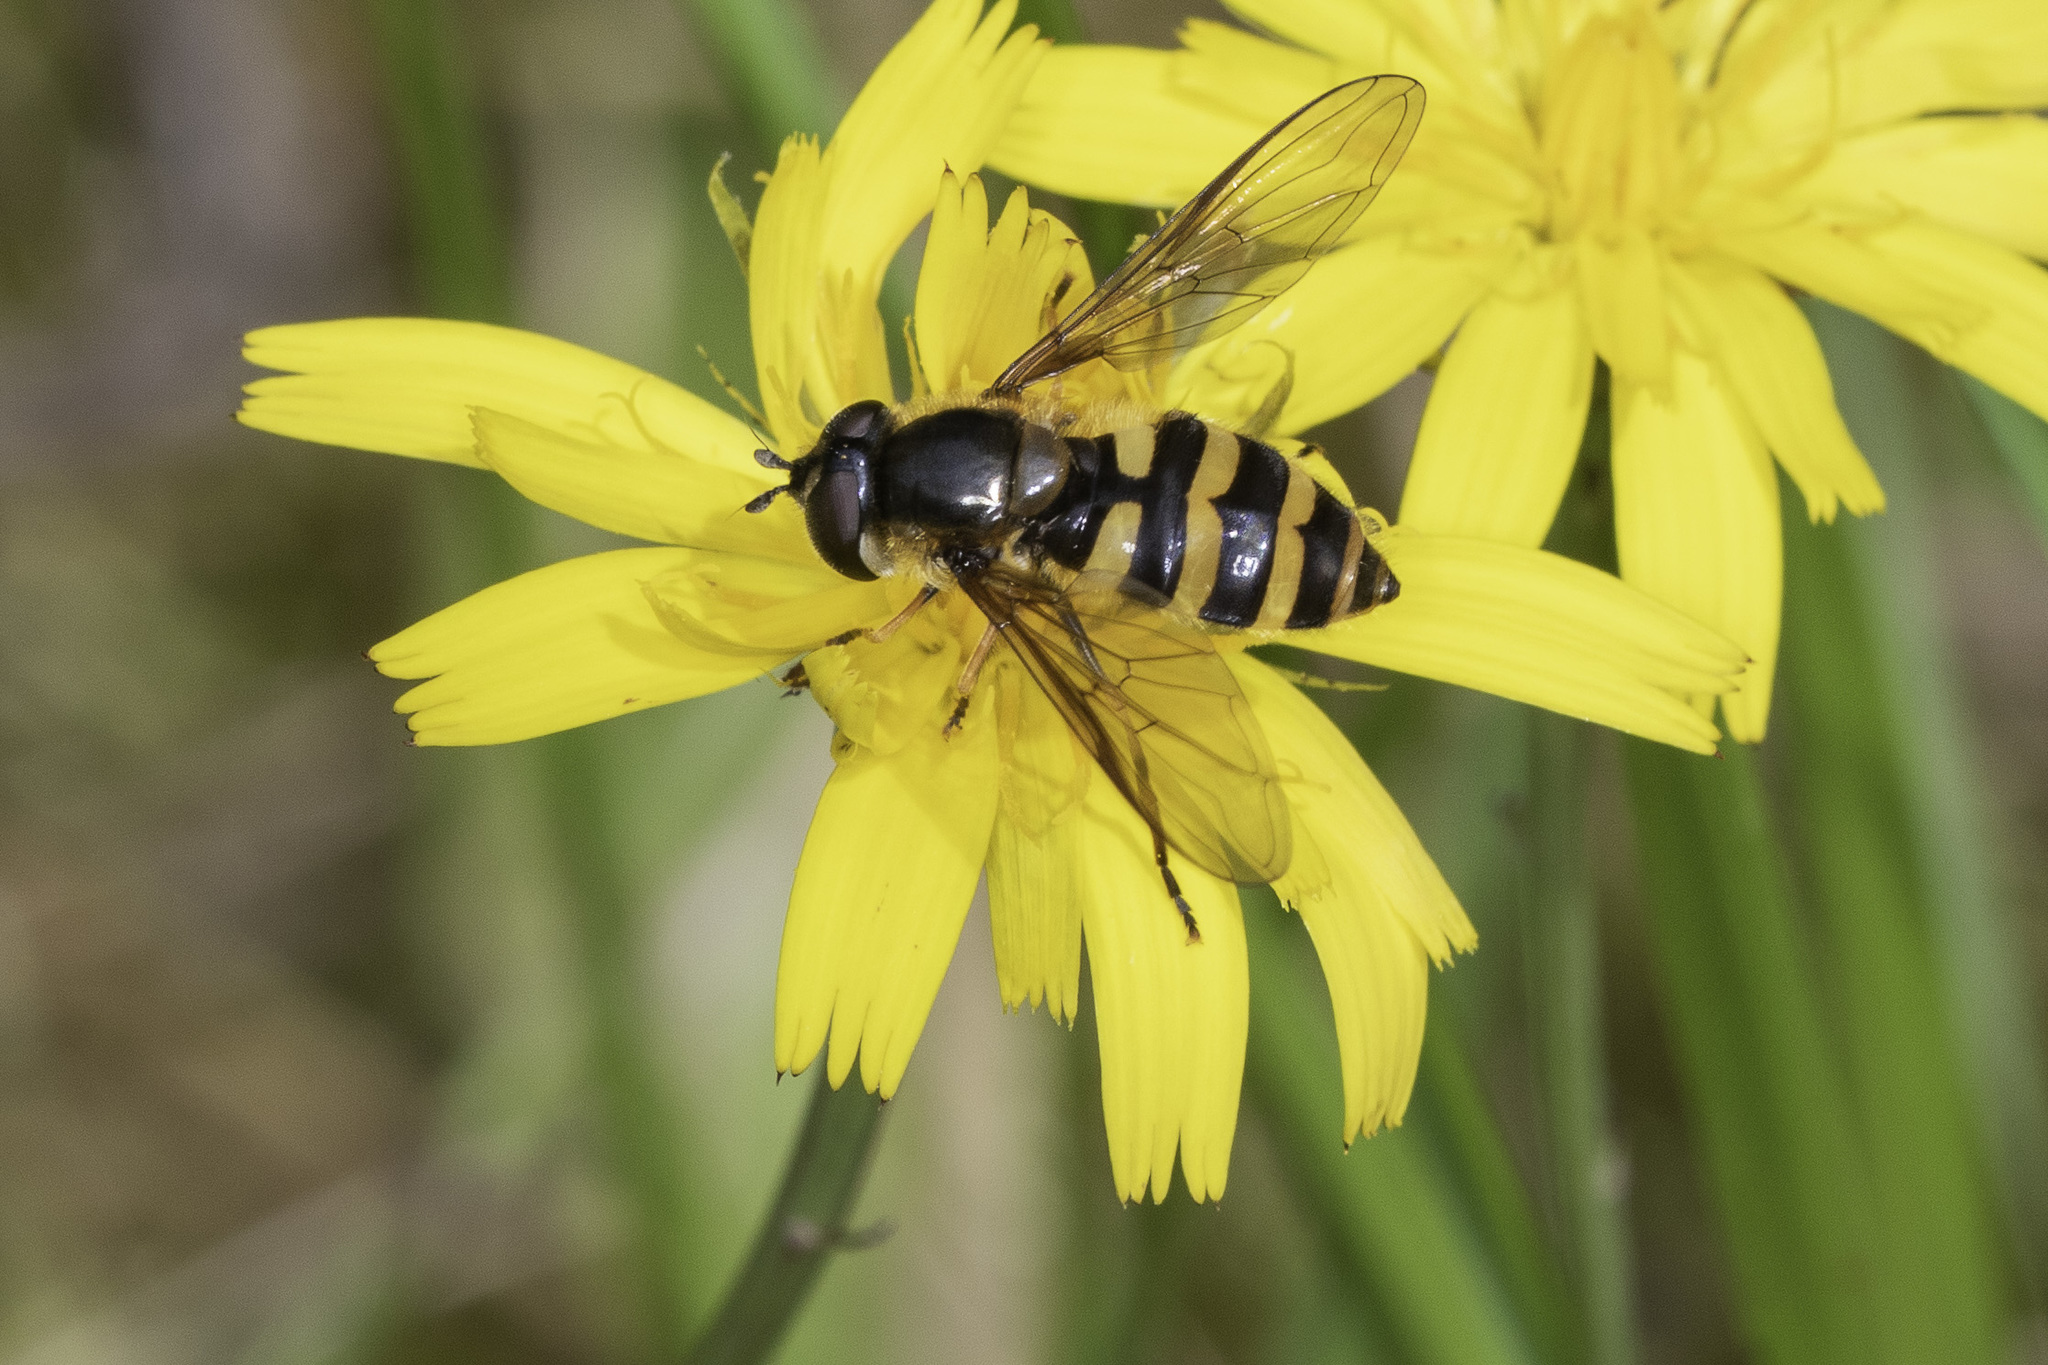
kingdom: Animalia
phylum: Arthropoda
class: Insecta
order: Diptera
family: Syrphidae
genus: Megasyrphus
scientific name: Megasyrphus erratica
